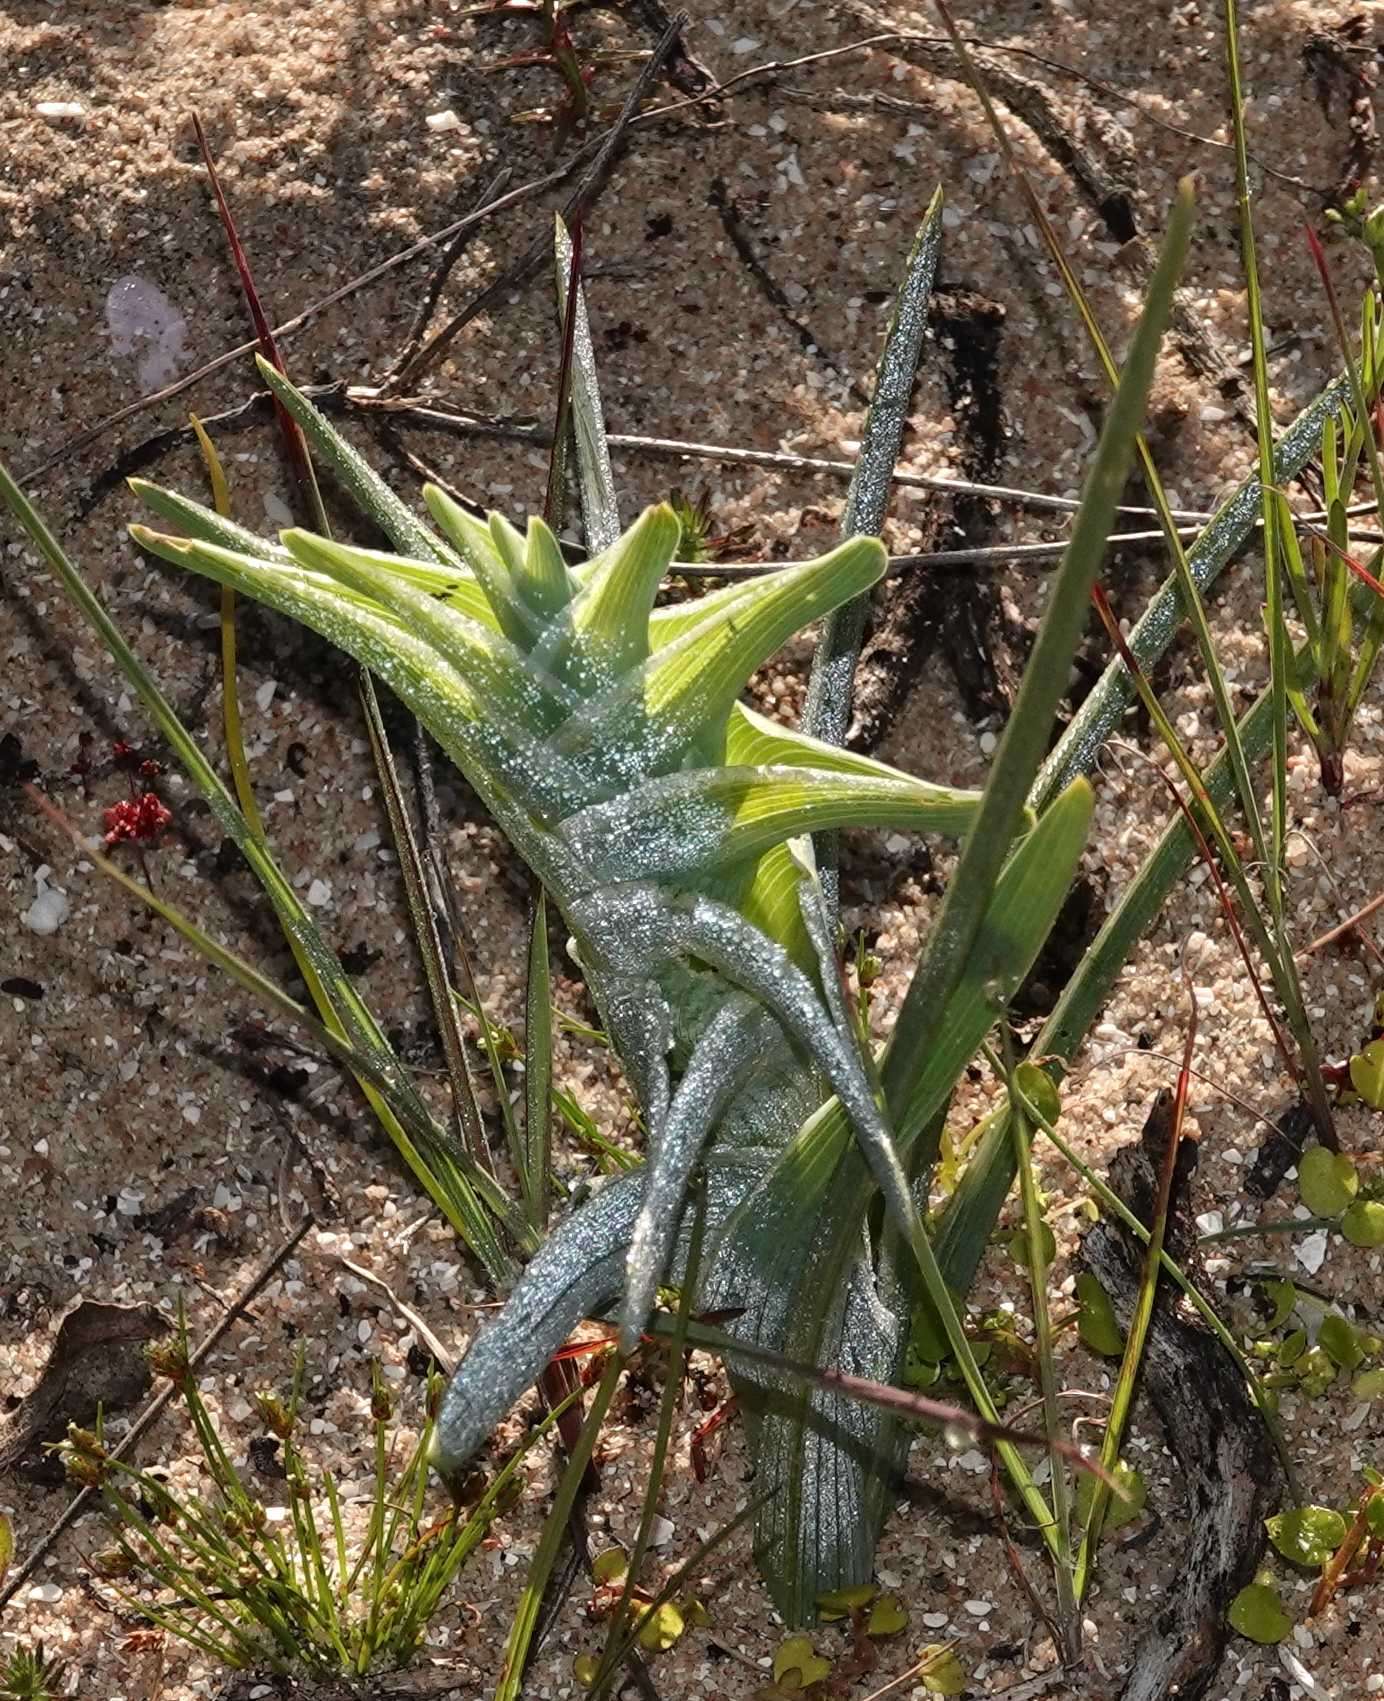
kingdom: Plantae
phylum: Tracheophyta
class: Liliopsida
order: Asparagales
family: Iridaceae
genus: Ferraria
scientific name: Ferraria foliosa
